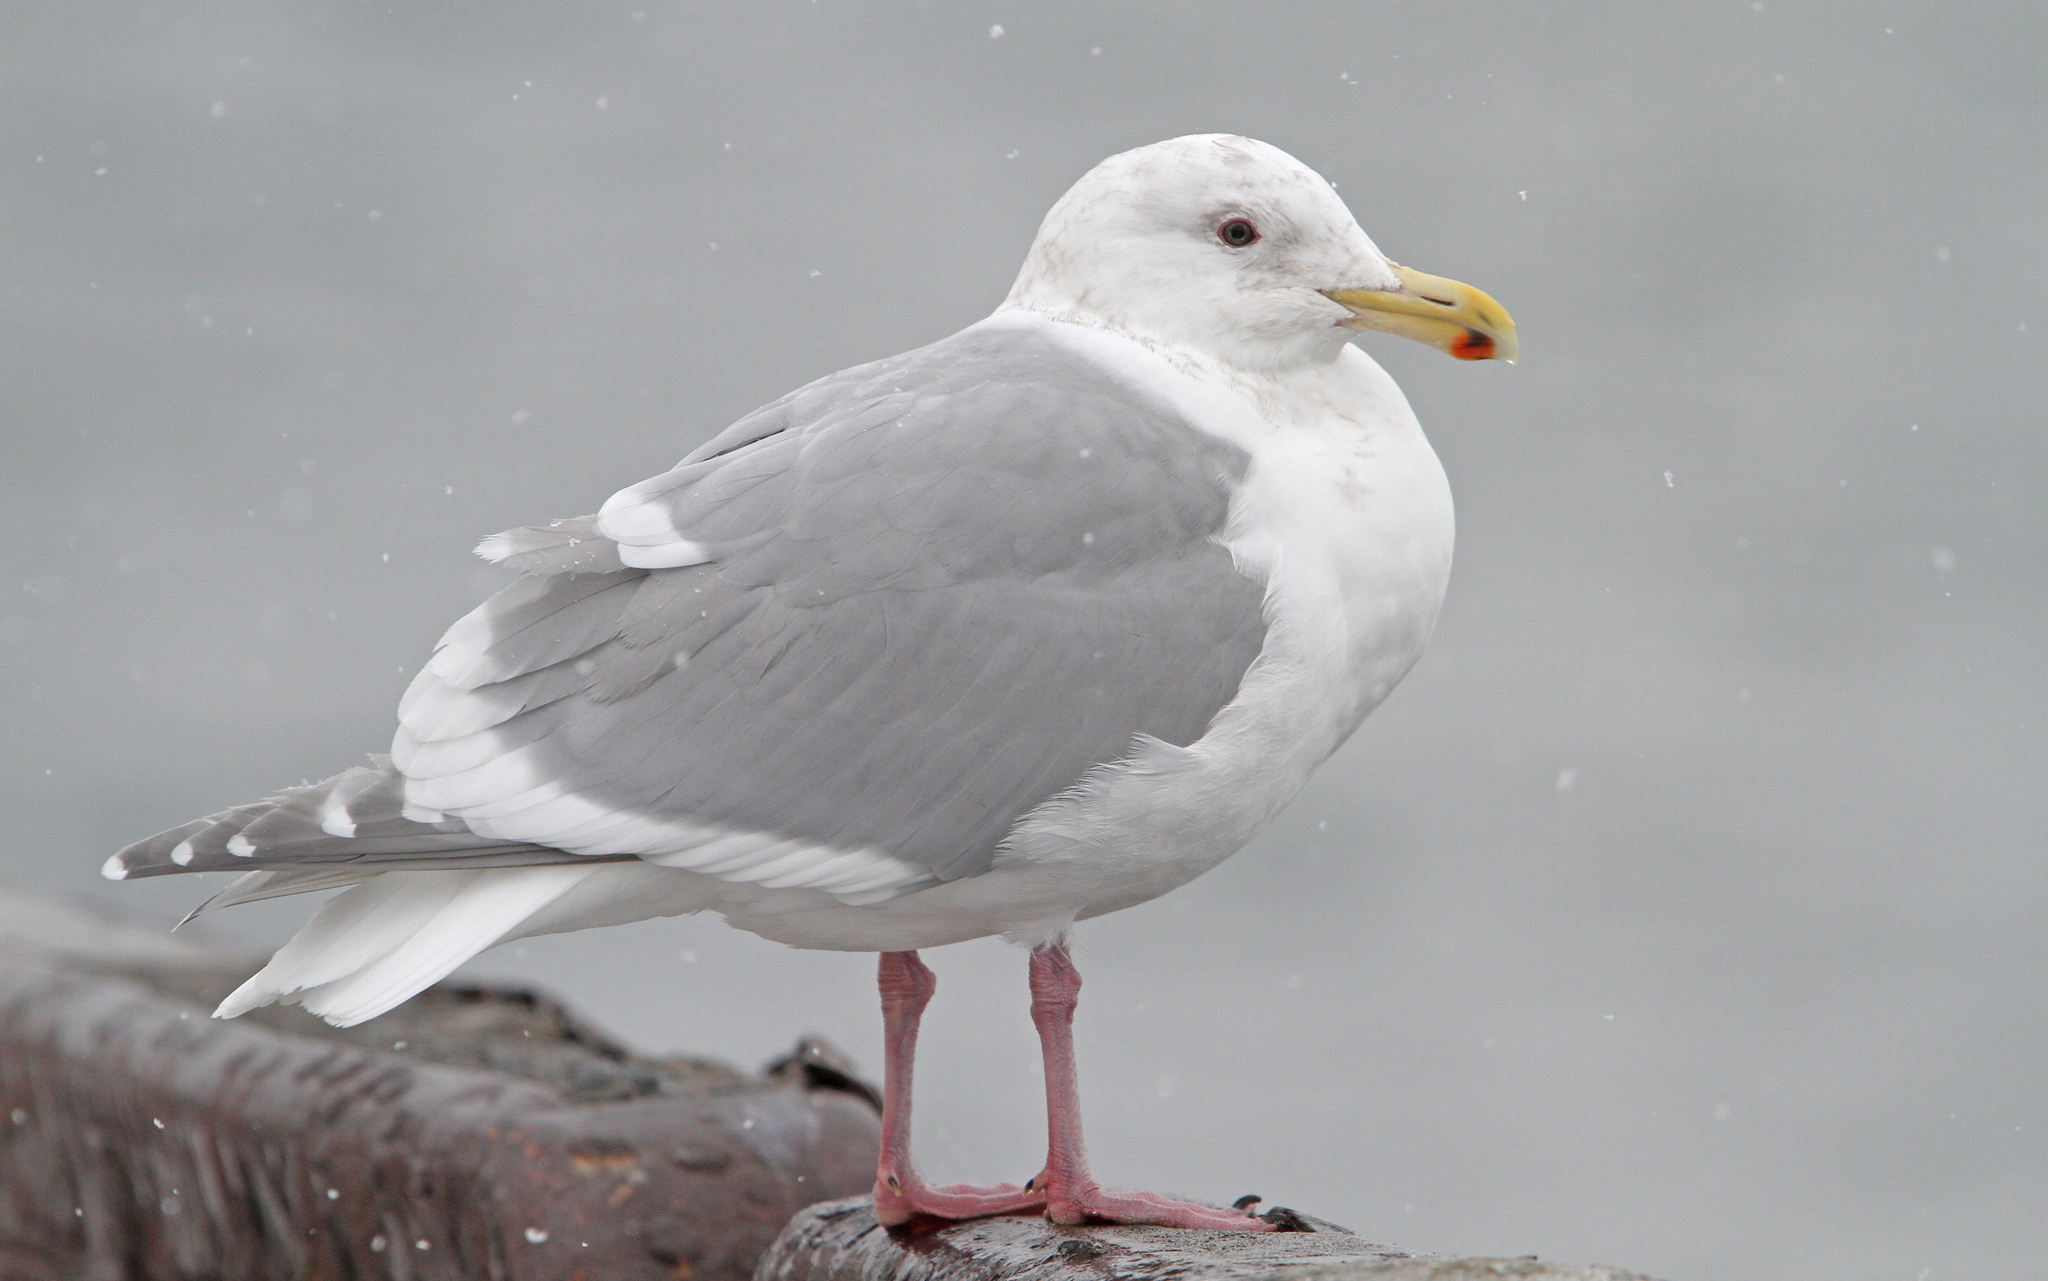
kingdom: Animalia
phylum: Chordata
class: Aves
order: Charadriiformes
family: Laridae
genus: Larus
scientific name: Larus glaucescens
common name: Glaucous-winged gull
